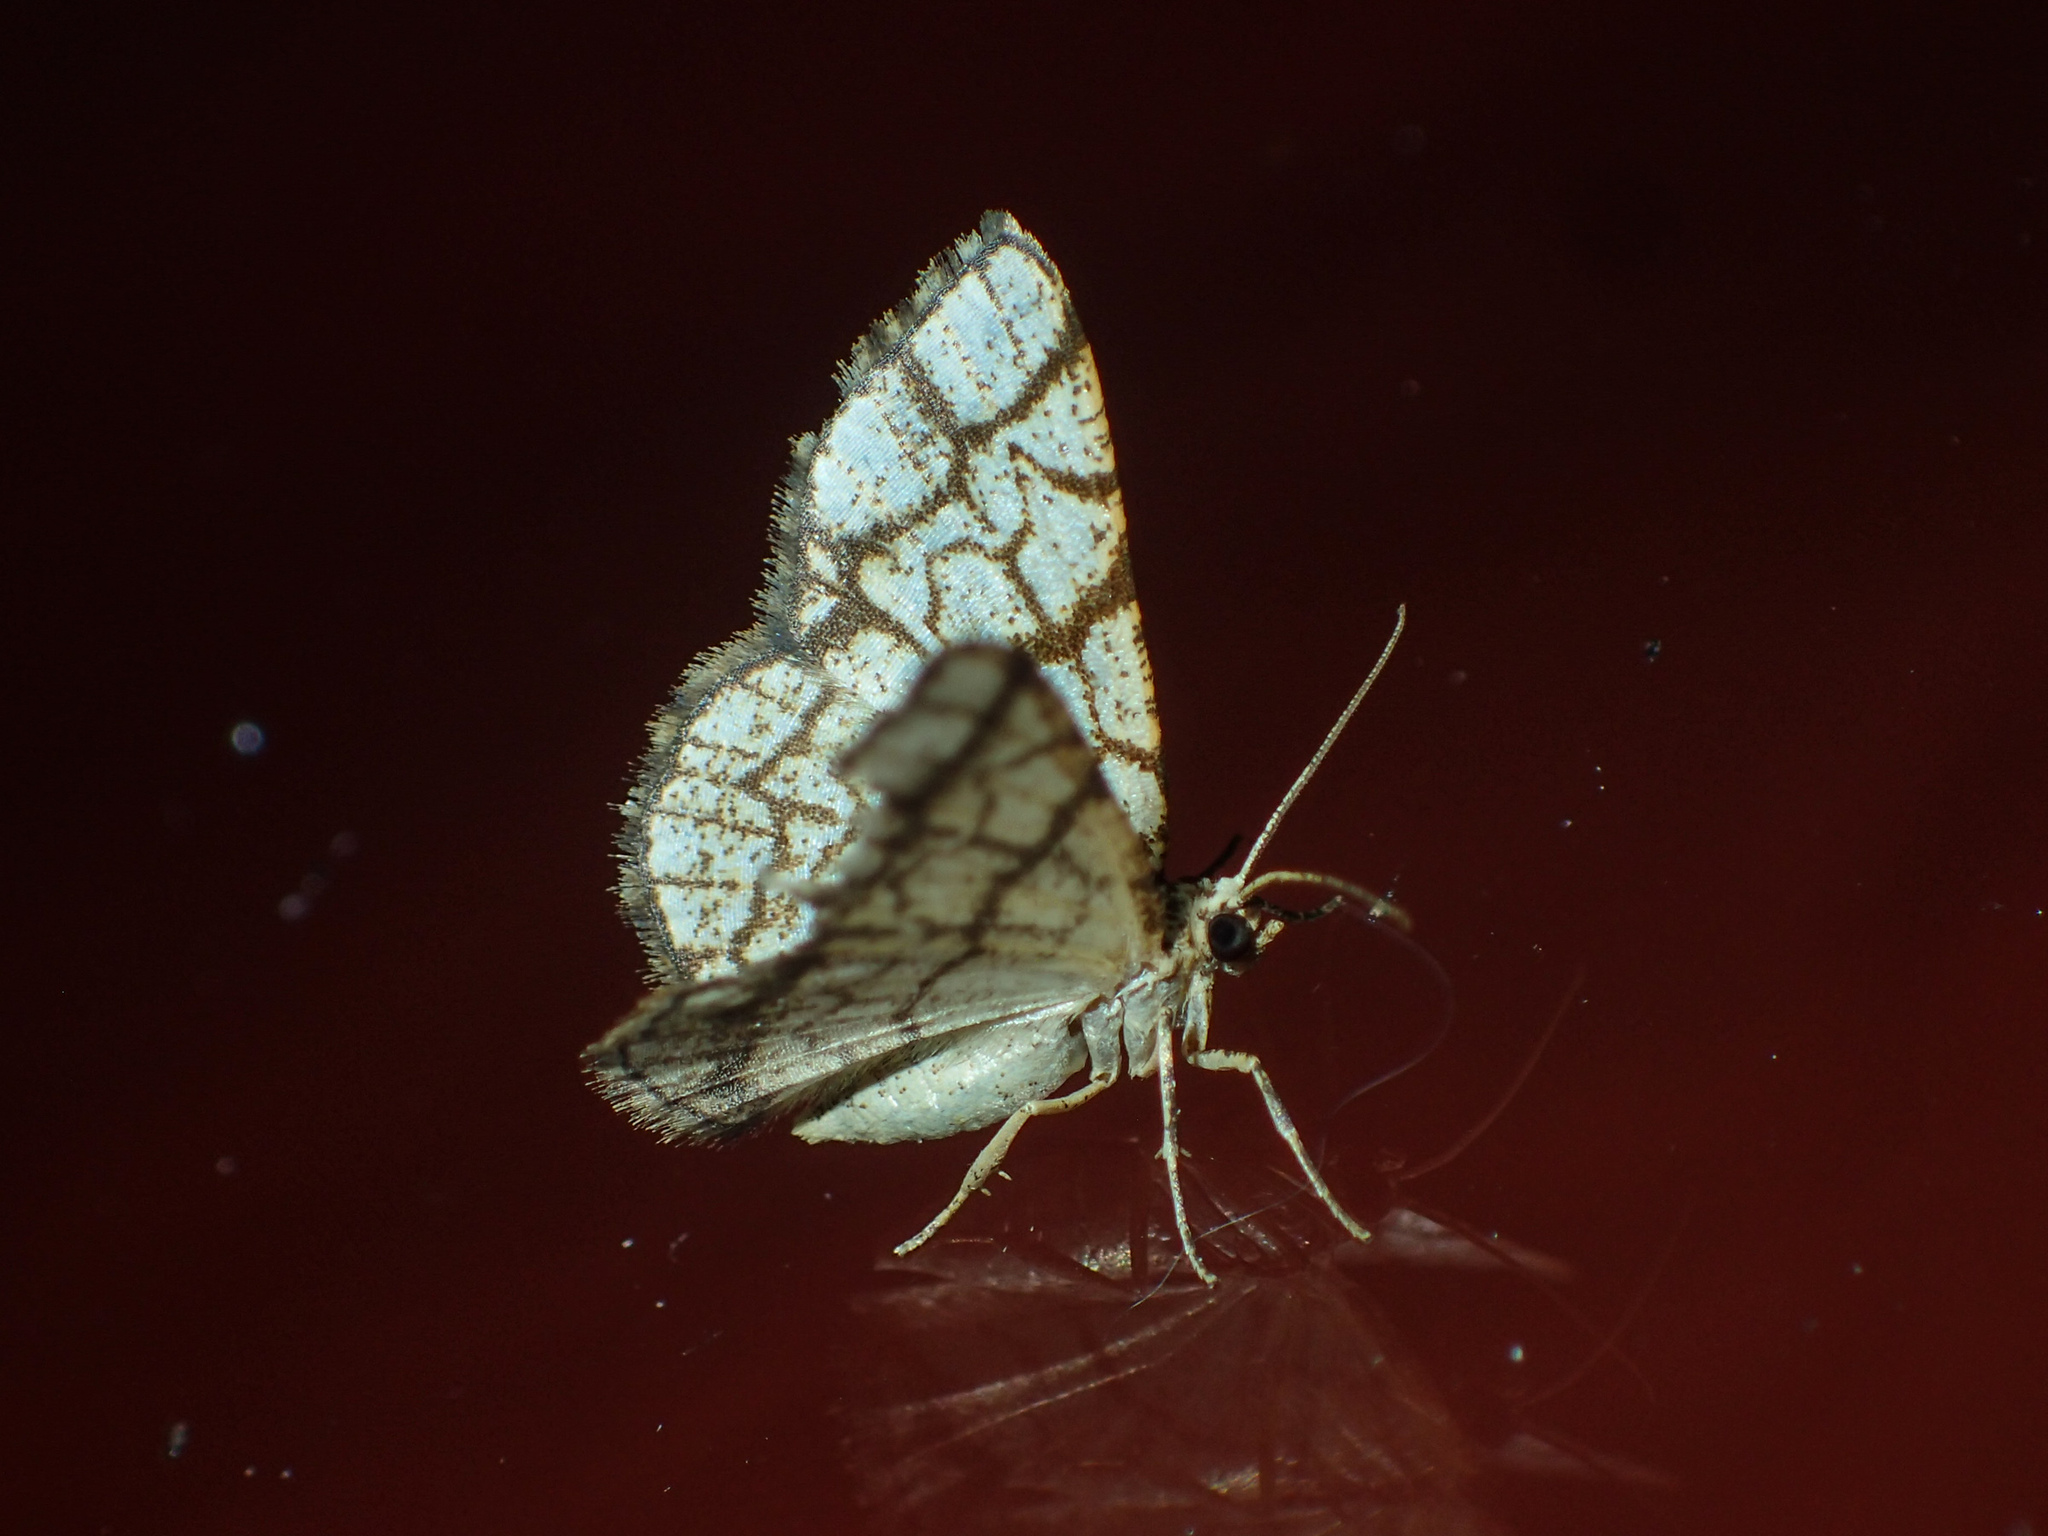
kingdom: Animalia
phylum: Arthropoda
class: Insecta
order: Lepidoptera
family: Geometridae
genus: Heterostegane
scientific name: Heterostegane warreni
